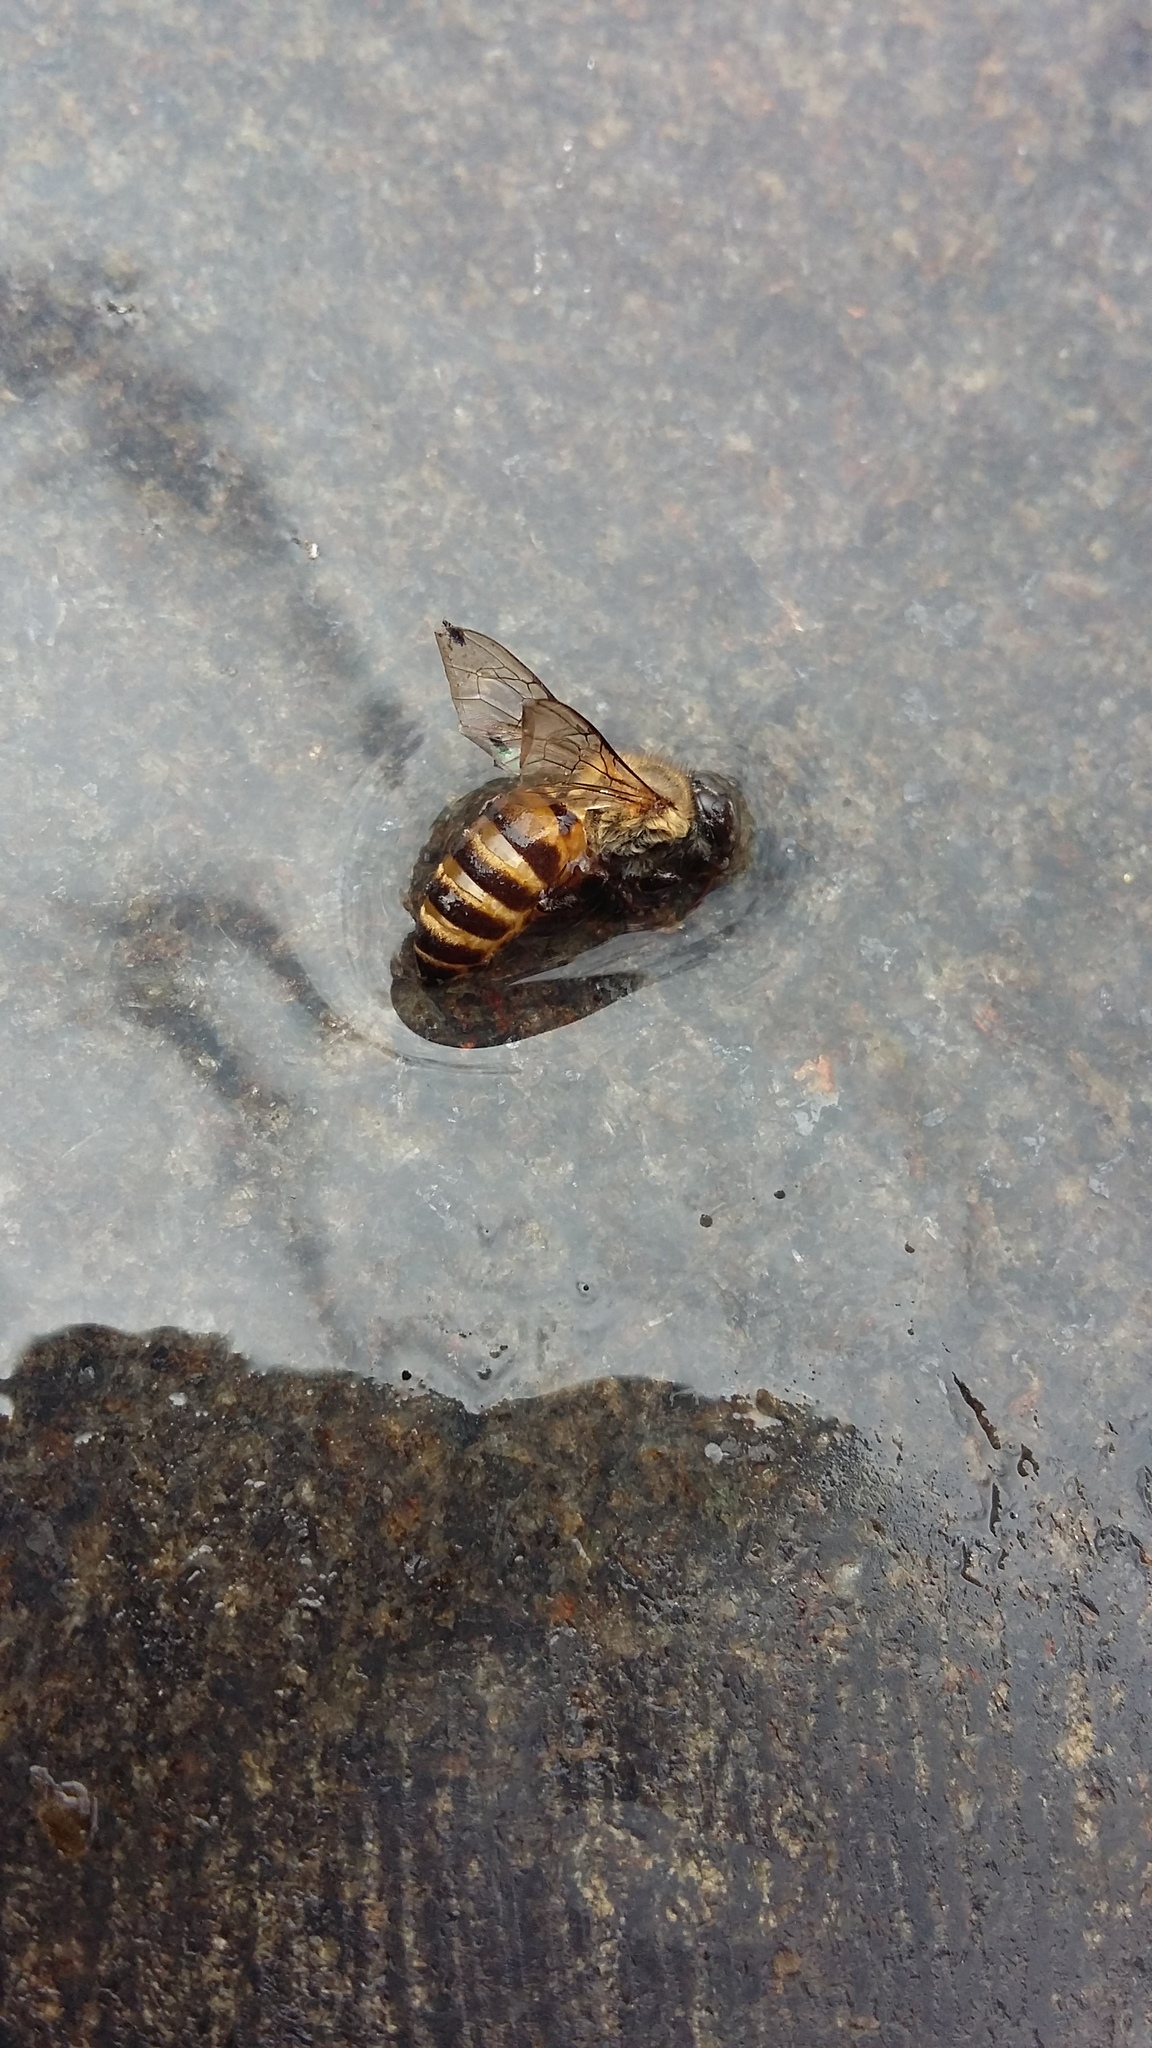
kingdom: Animalia
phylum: Arthropoda
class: Insecta
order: Hymenoptera
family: Apidae
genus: Apis
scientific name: Apis cerana
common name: Honey bee
